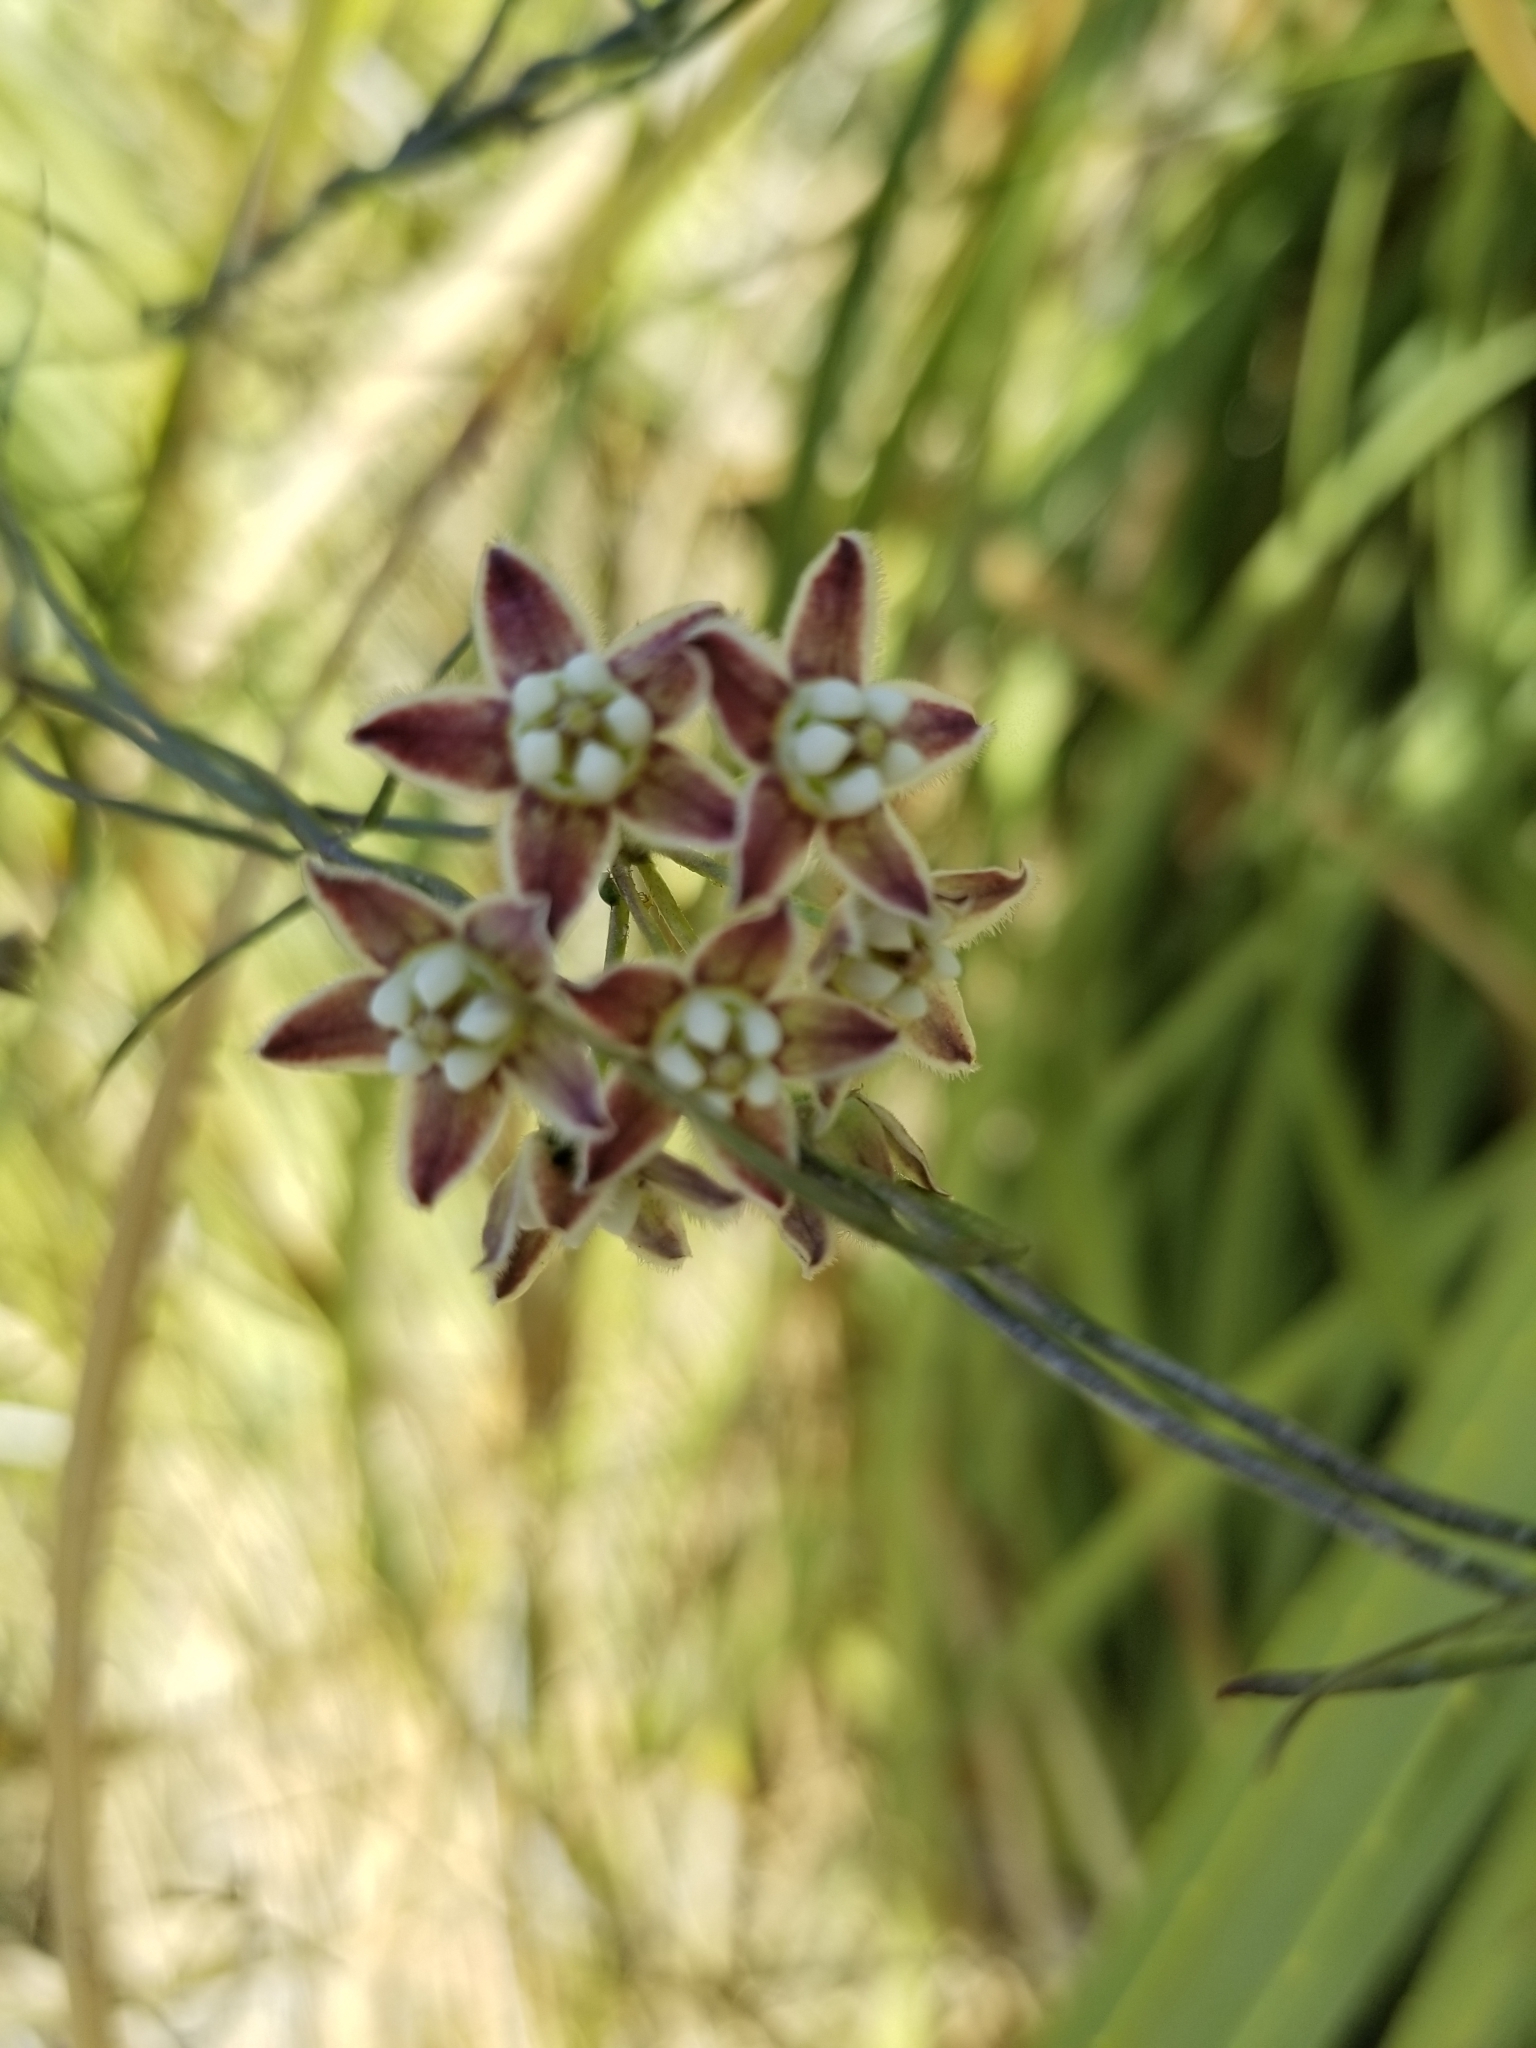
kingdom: Plantae
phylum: Tracheophyta
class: Magnoliopsida
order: Gentianales
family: Apocynaceae
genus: Funastrum
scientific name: Funastrum heterophyllum
